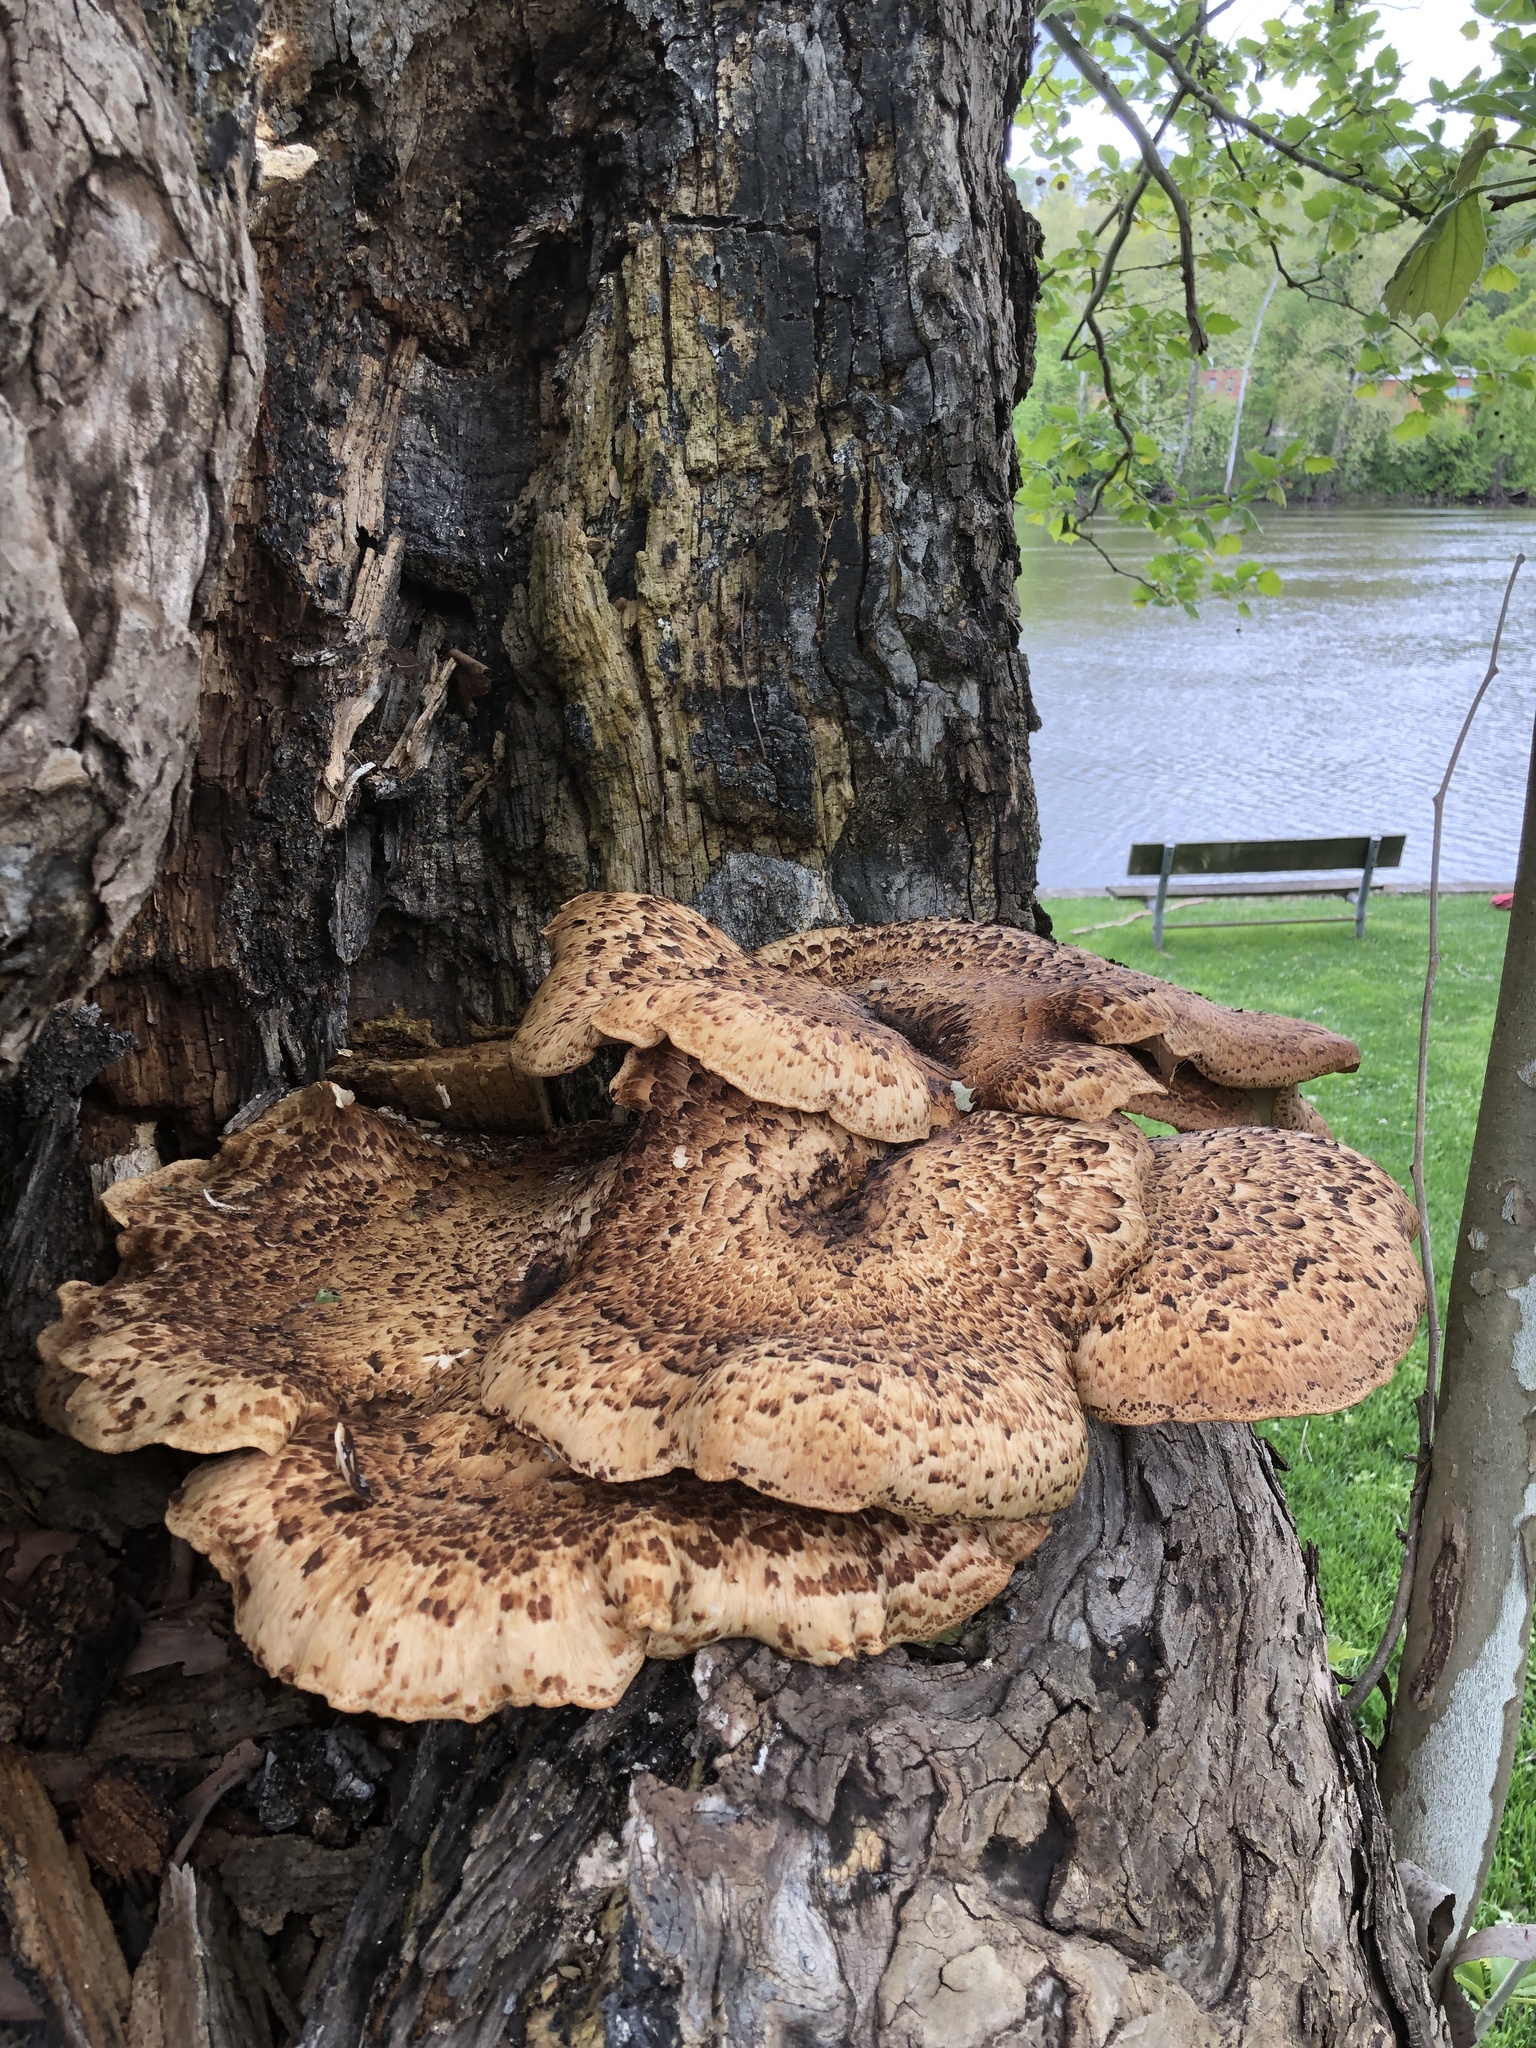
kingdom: Fungi
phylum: Basidiomycota
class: Agaricomycetes
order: Polyporales
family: Polyporaceae
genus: Cerioporus
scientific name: Cerioporus squamosus
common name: Dryad's saddle
